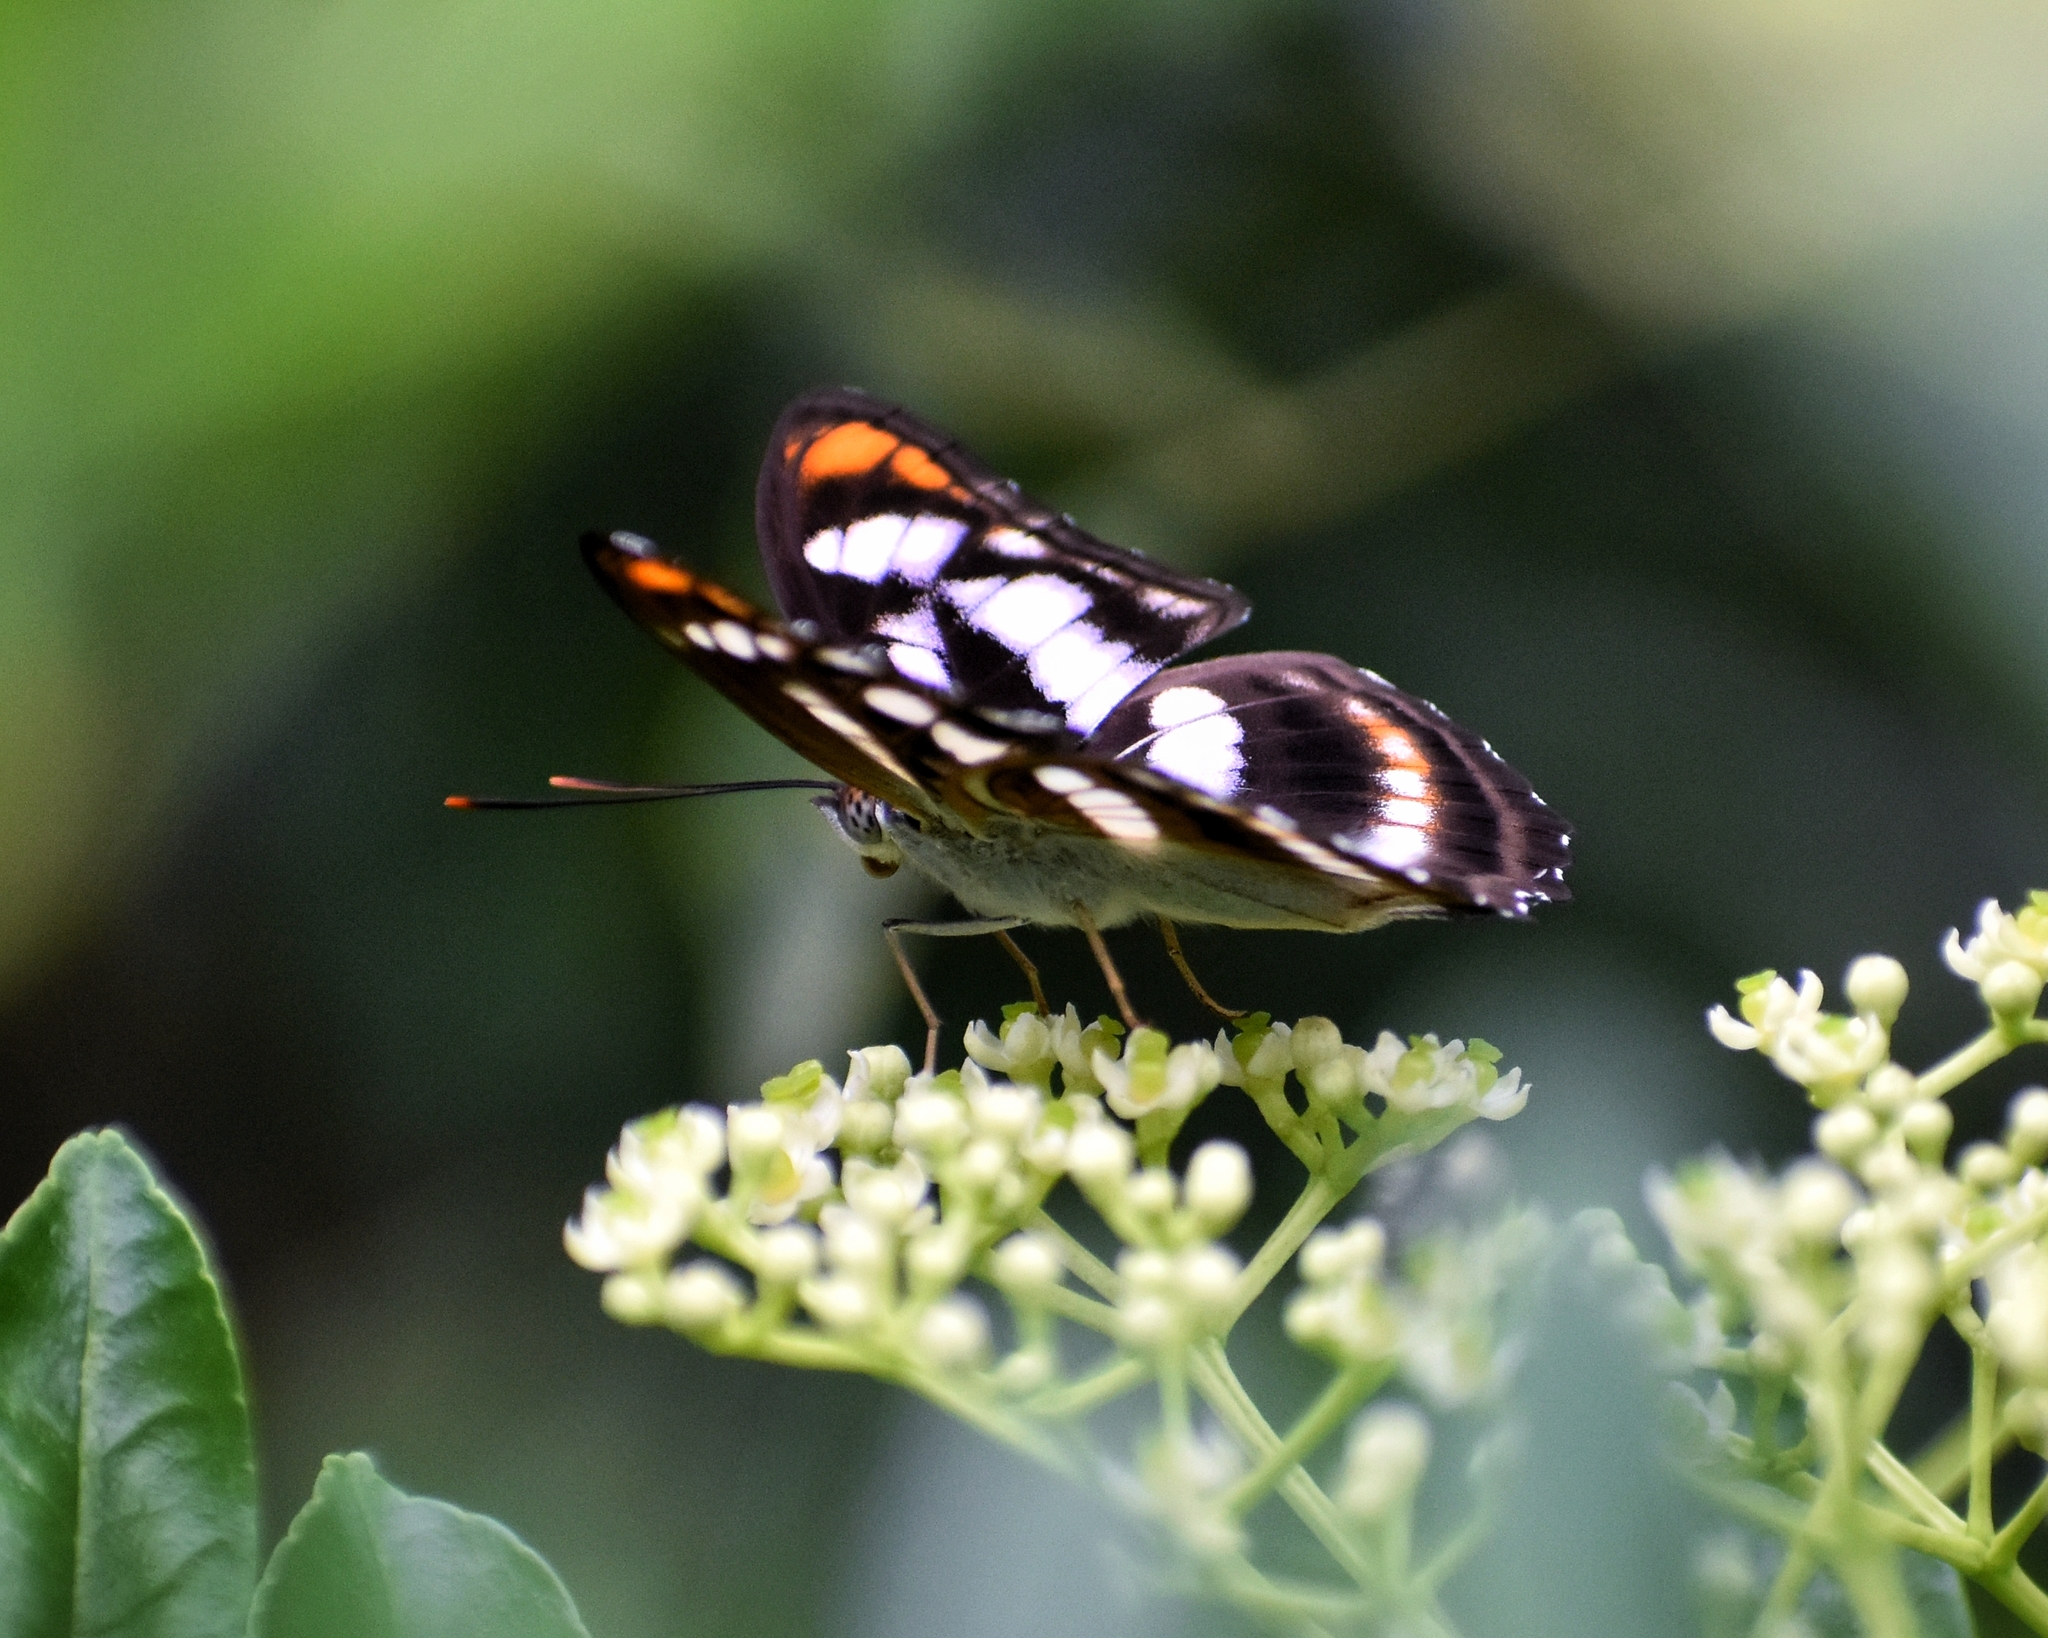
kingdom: Animalia
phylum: Arthropoda
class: Insecta
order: Lepidoptera
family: Nymphalidae
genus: Parathyma
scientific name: Parathyma nefte
